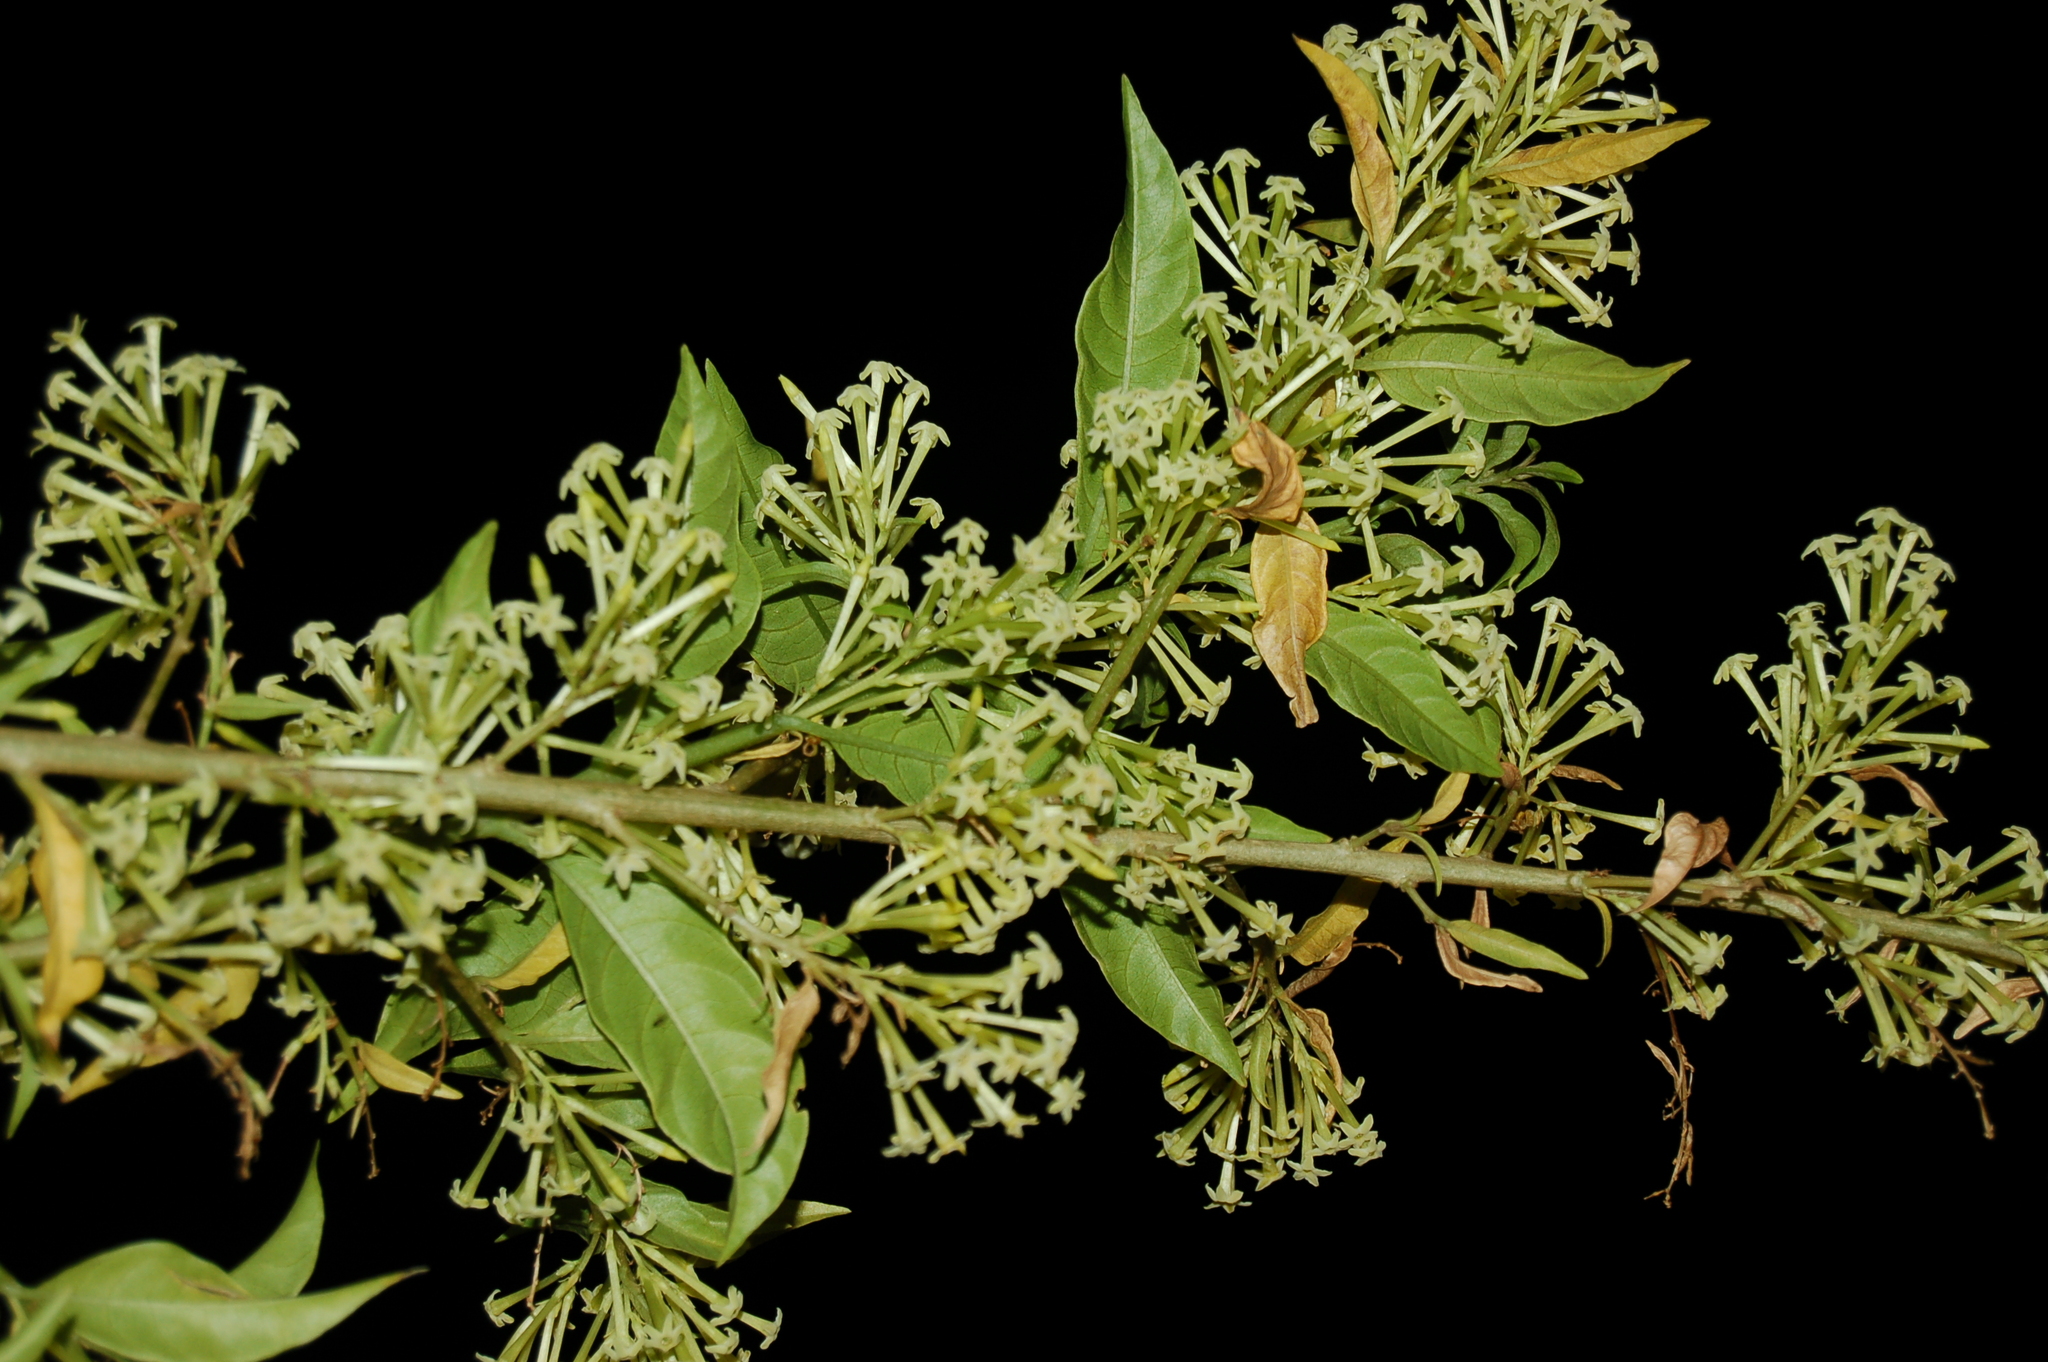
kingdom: Plantae
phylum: Tracheophyta
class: Magnoliopsida
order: Solanales
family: Solanaceae
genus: Cestrum
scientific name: Cestrum nocturnum
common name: Night jessamine
